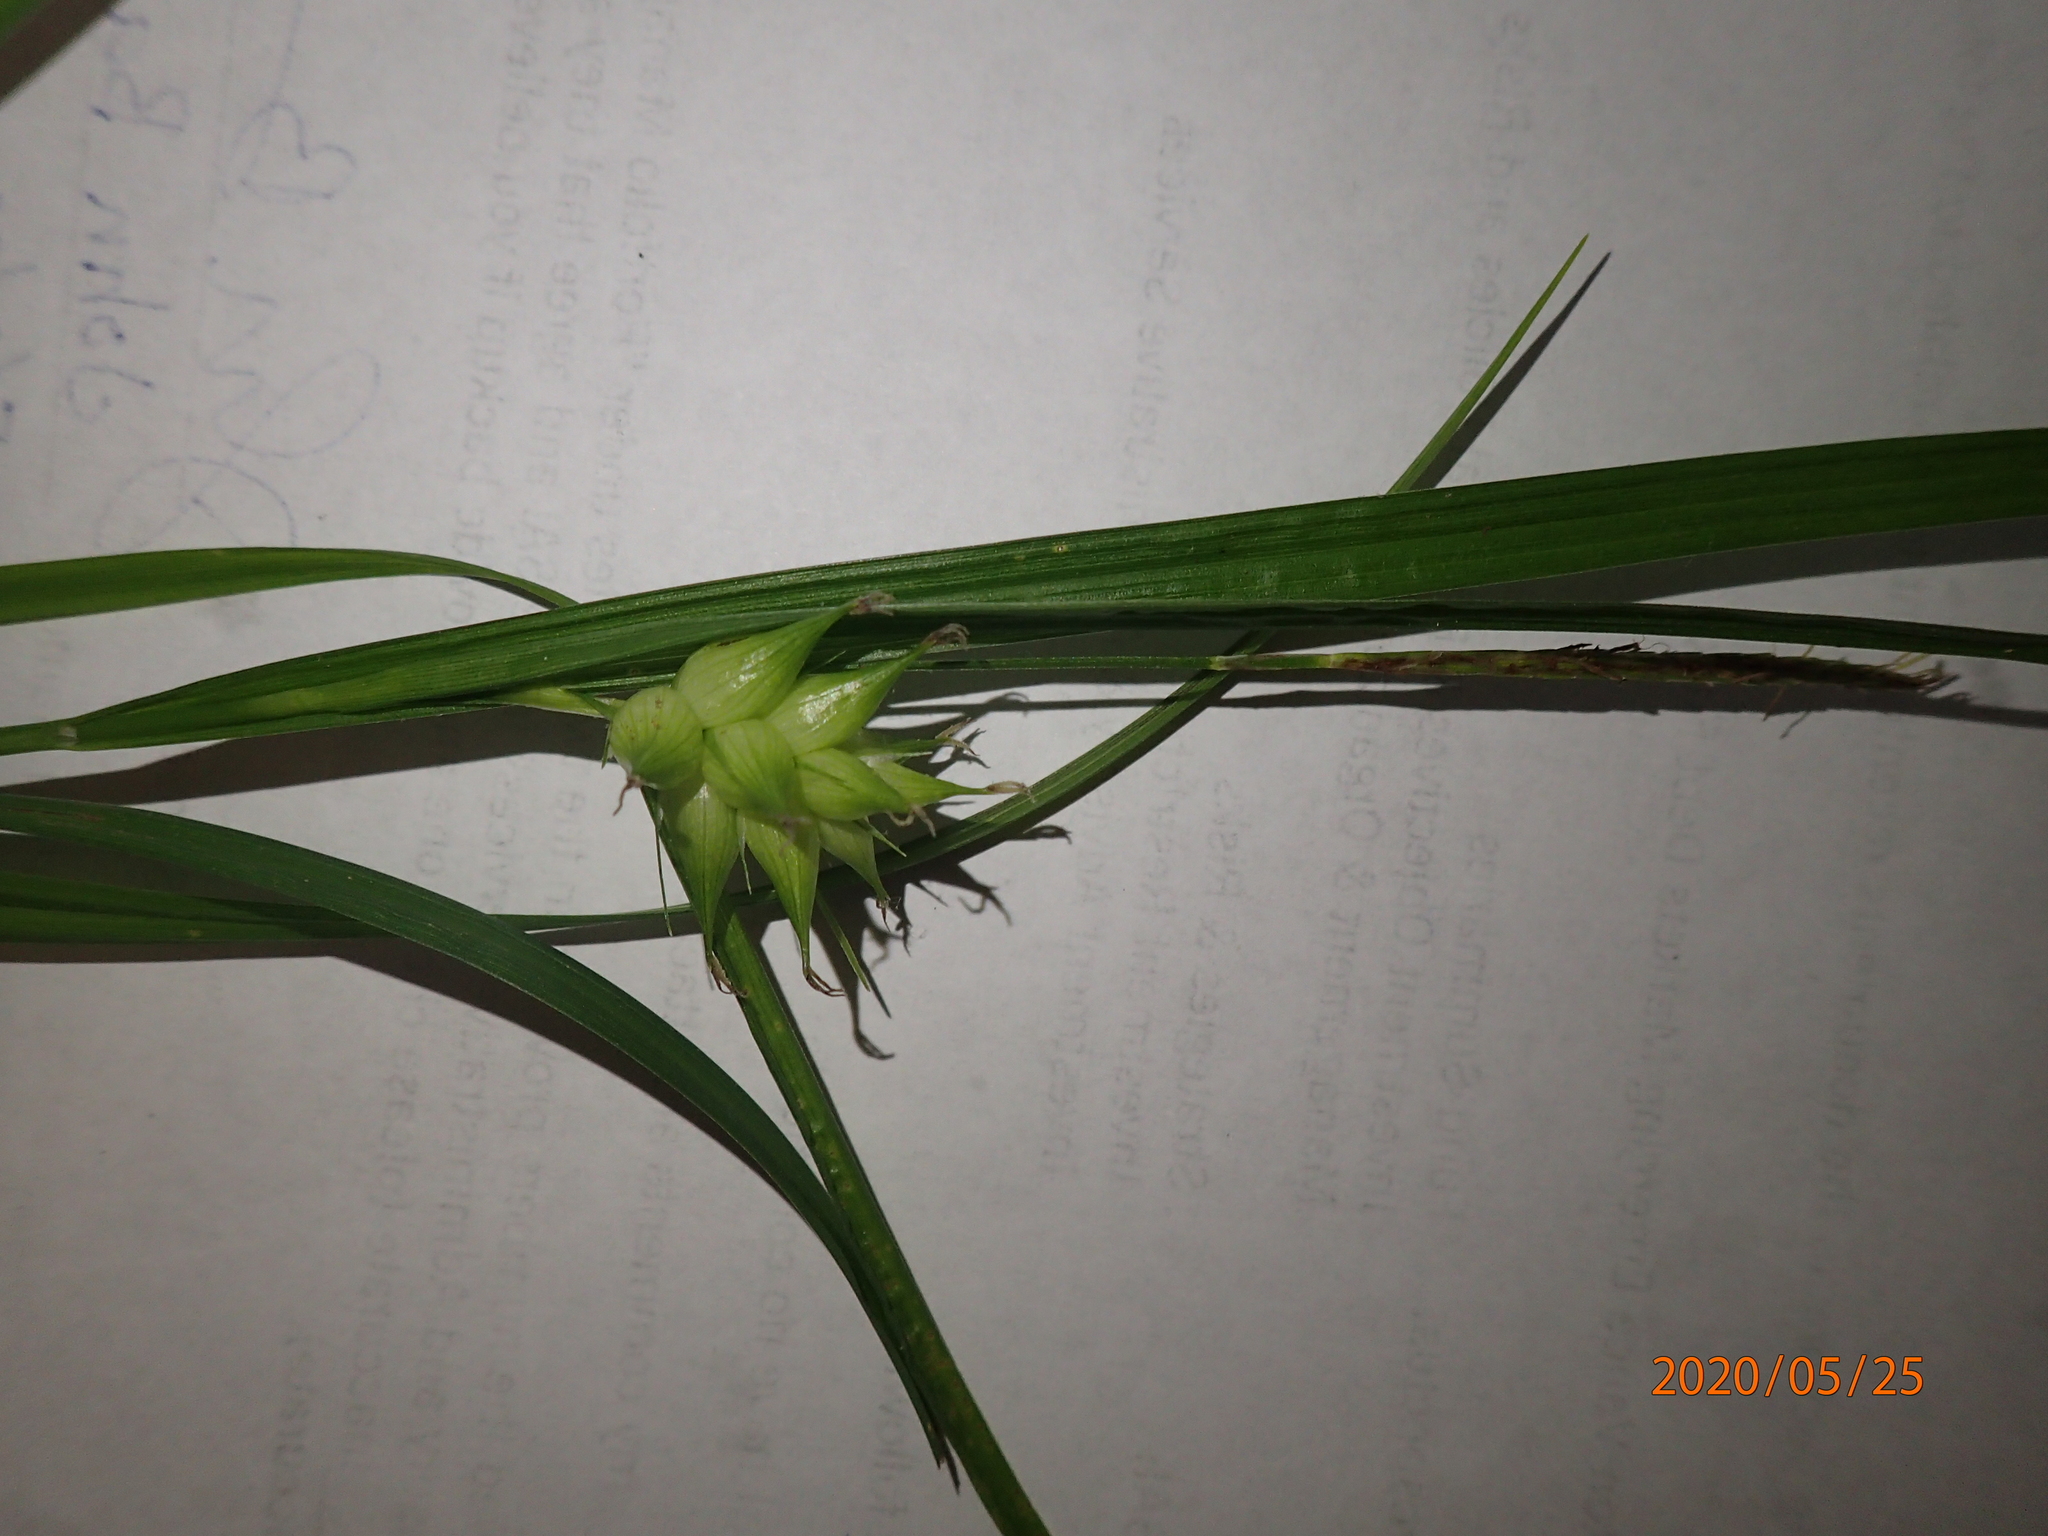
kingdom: Plantae
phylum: Tracheophyta
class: Liliopsida
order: Poales
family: Cyperaceae
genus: Carex
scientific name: Carex intumescens
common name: Greater bladder sedge
